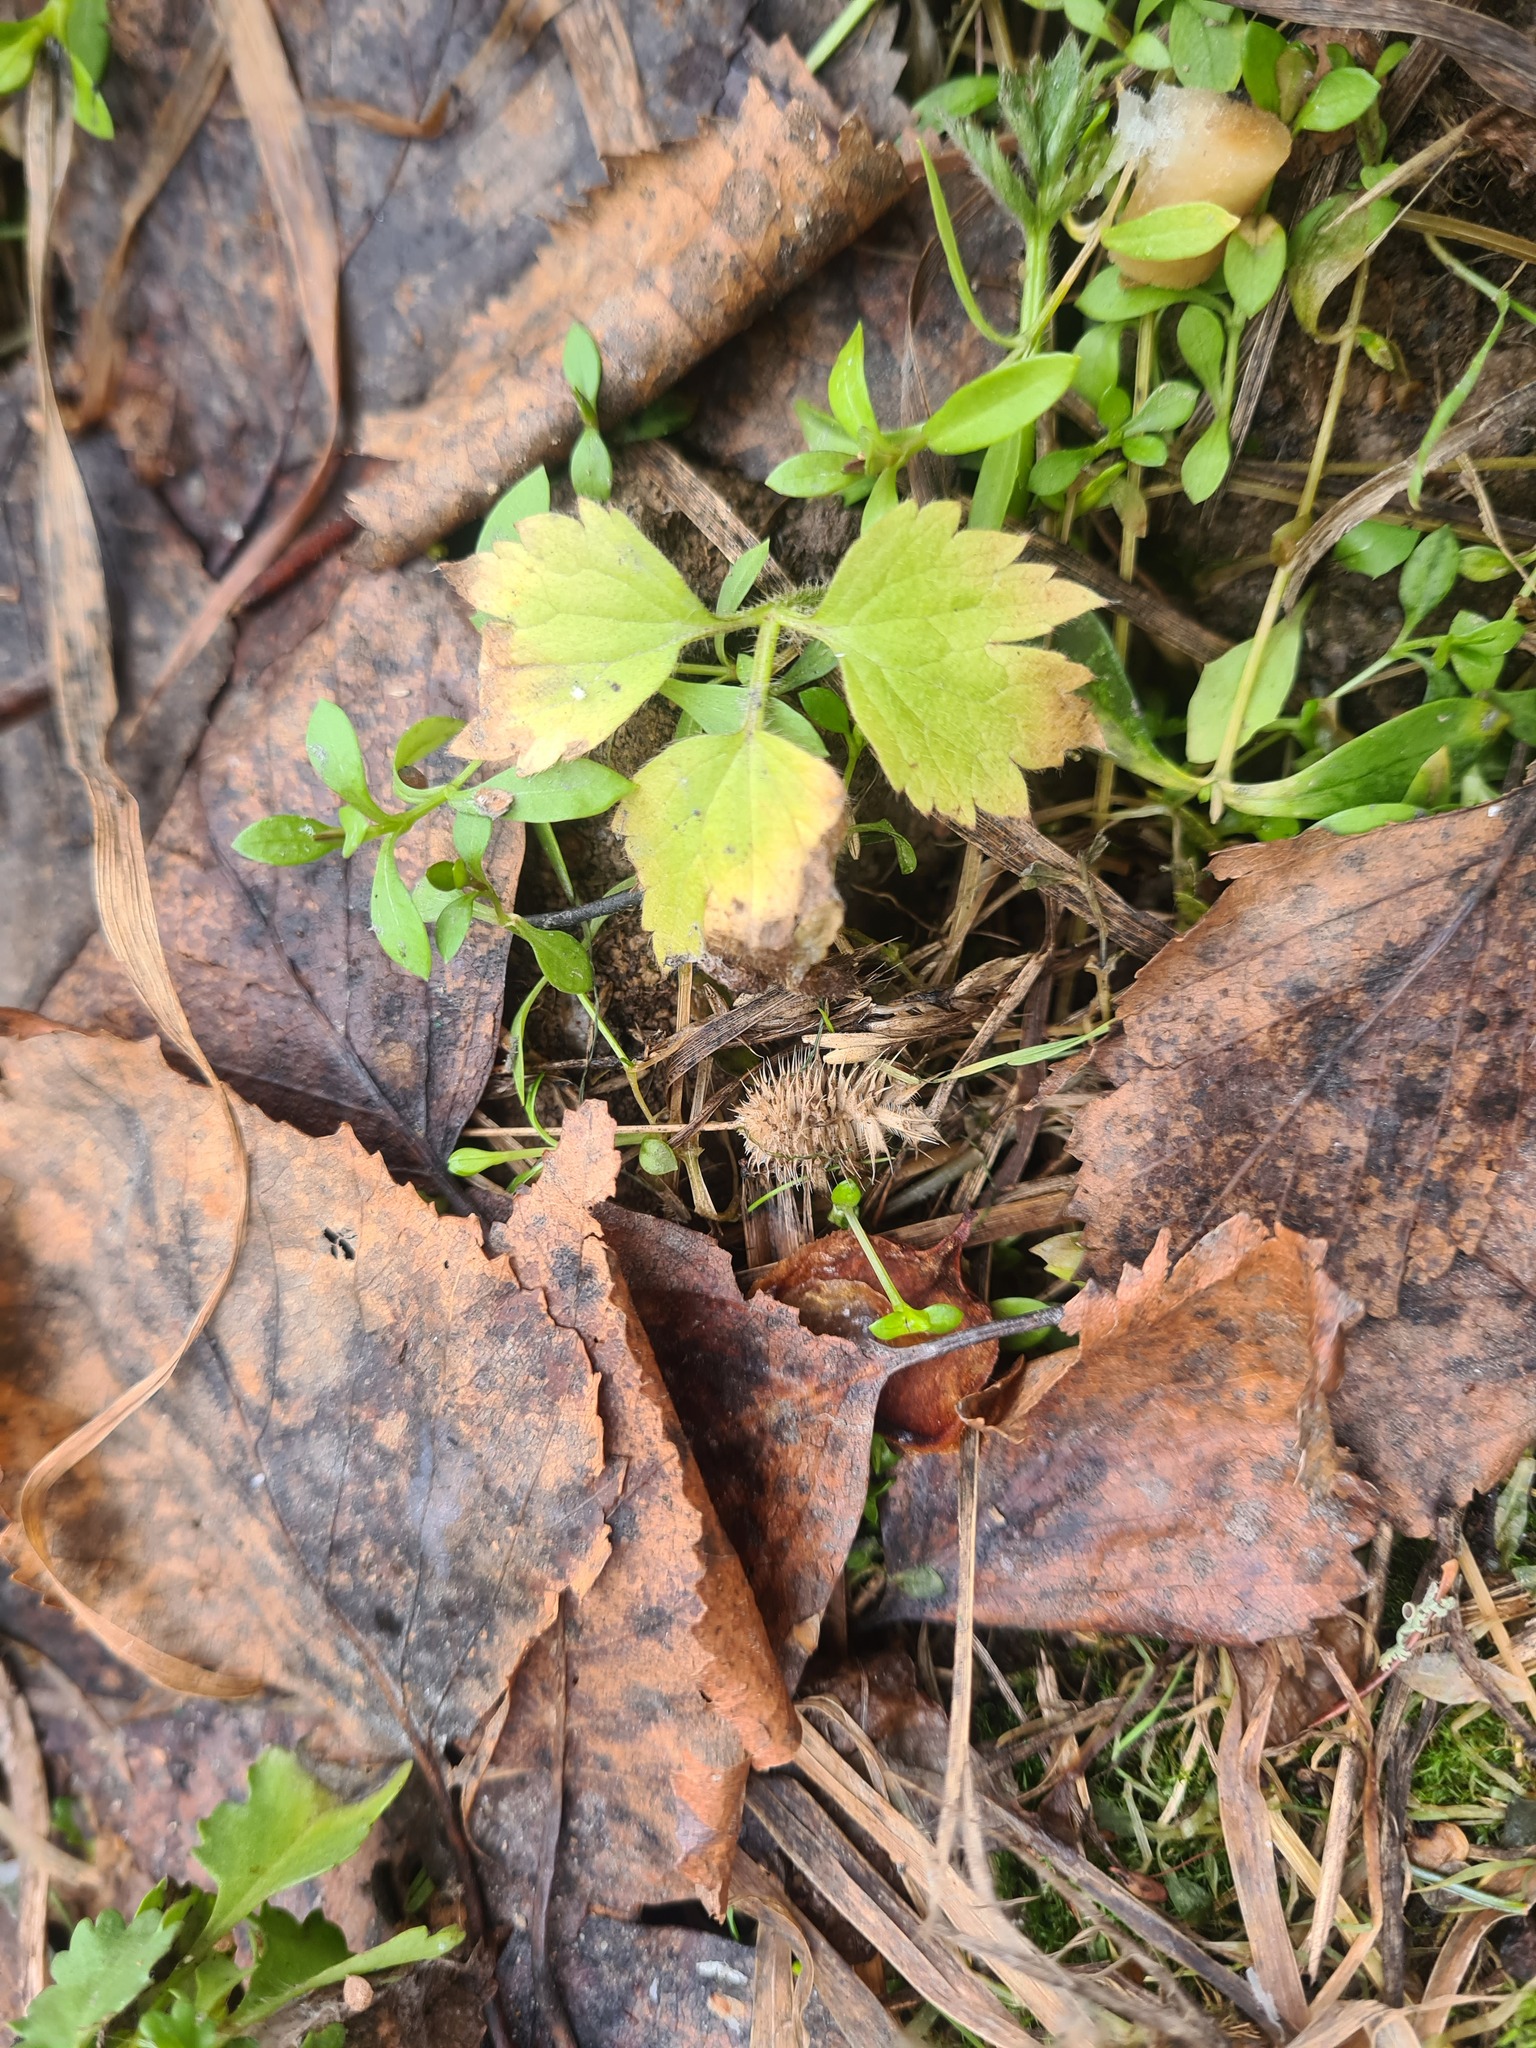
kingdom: Plantae
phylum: Tracheophyta
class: Magnoliopsida
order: Ranunculales
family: Ranunculaceae
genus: Ranunculus
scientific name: Ranunculus repens
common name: Creeping buttercup
